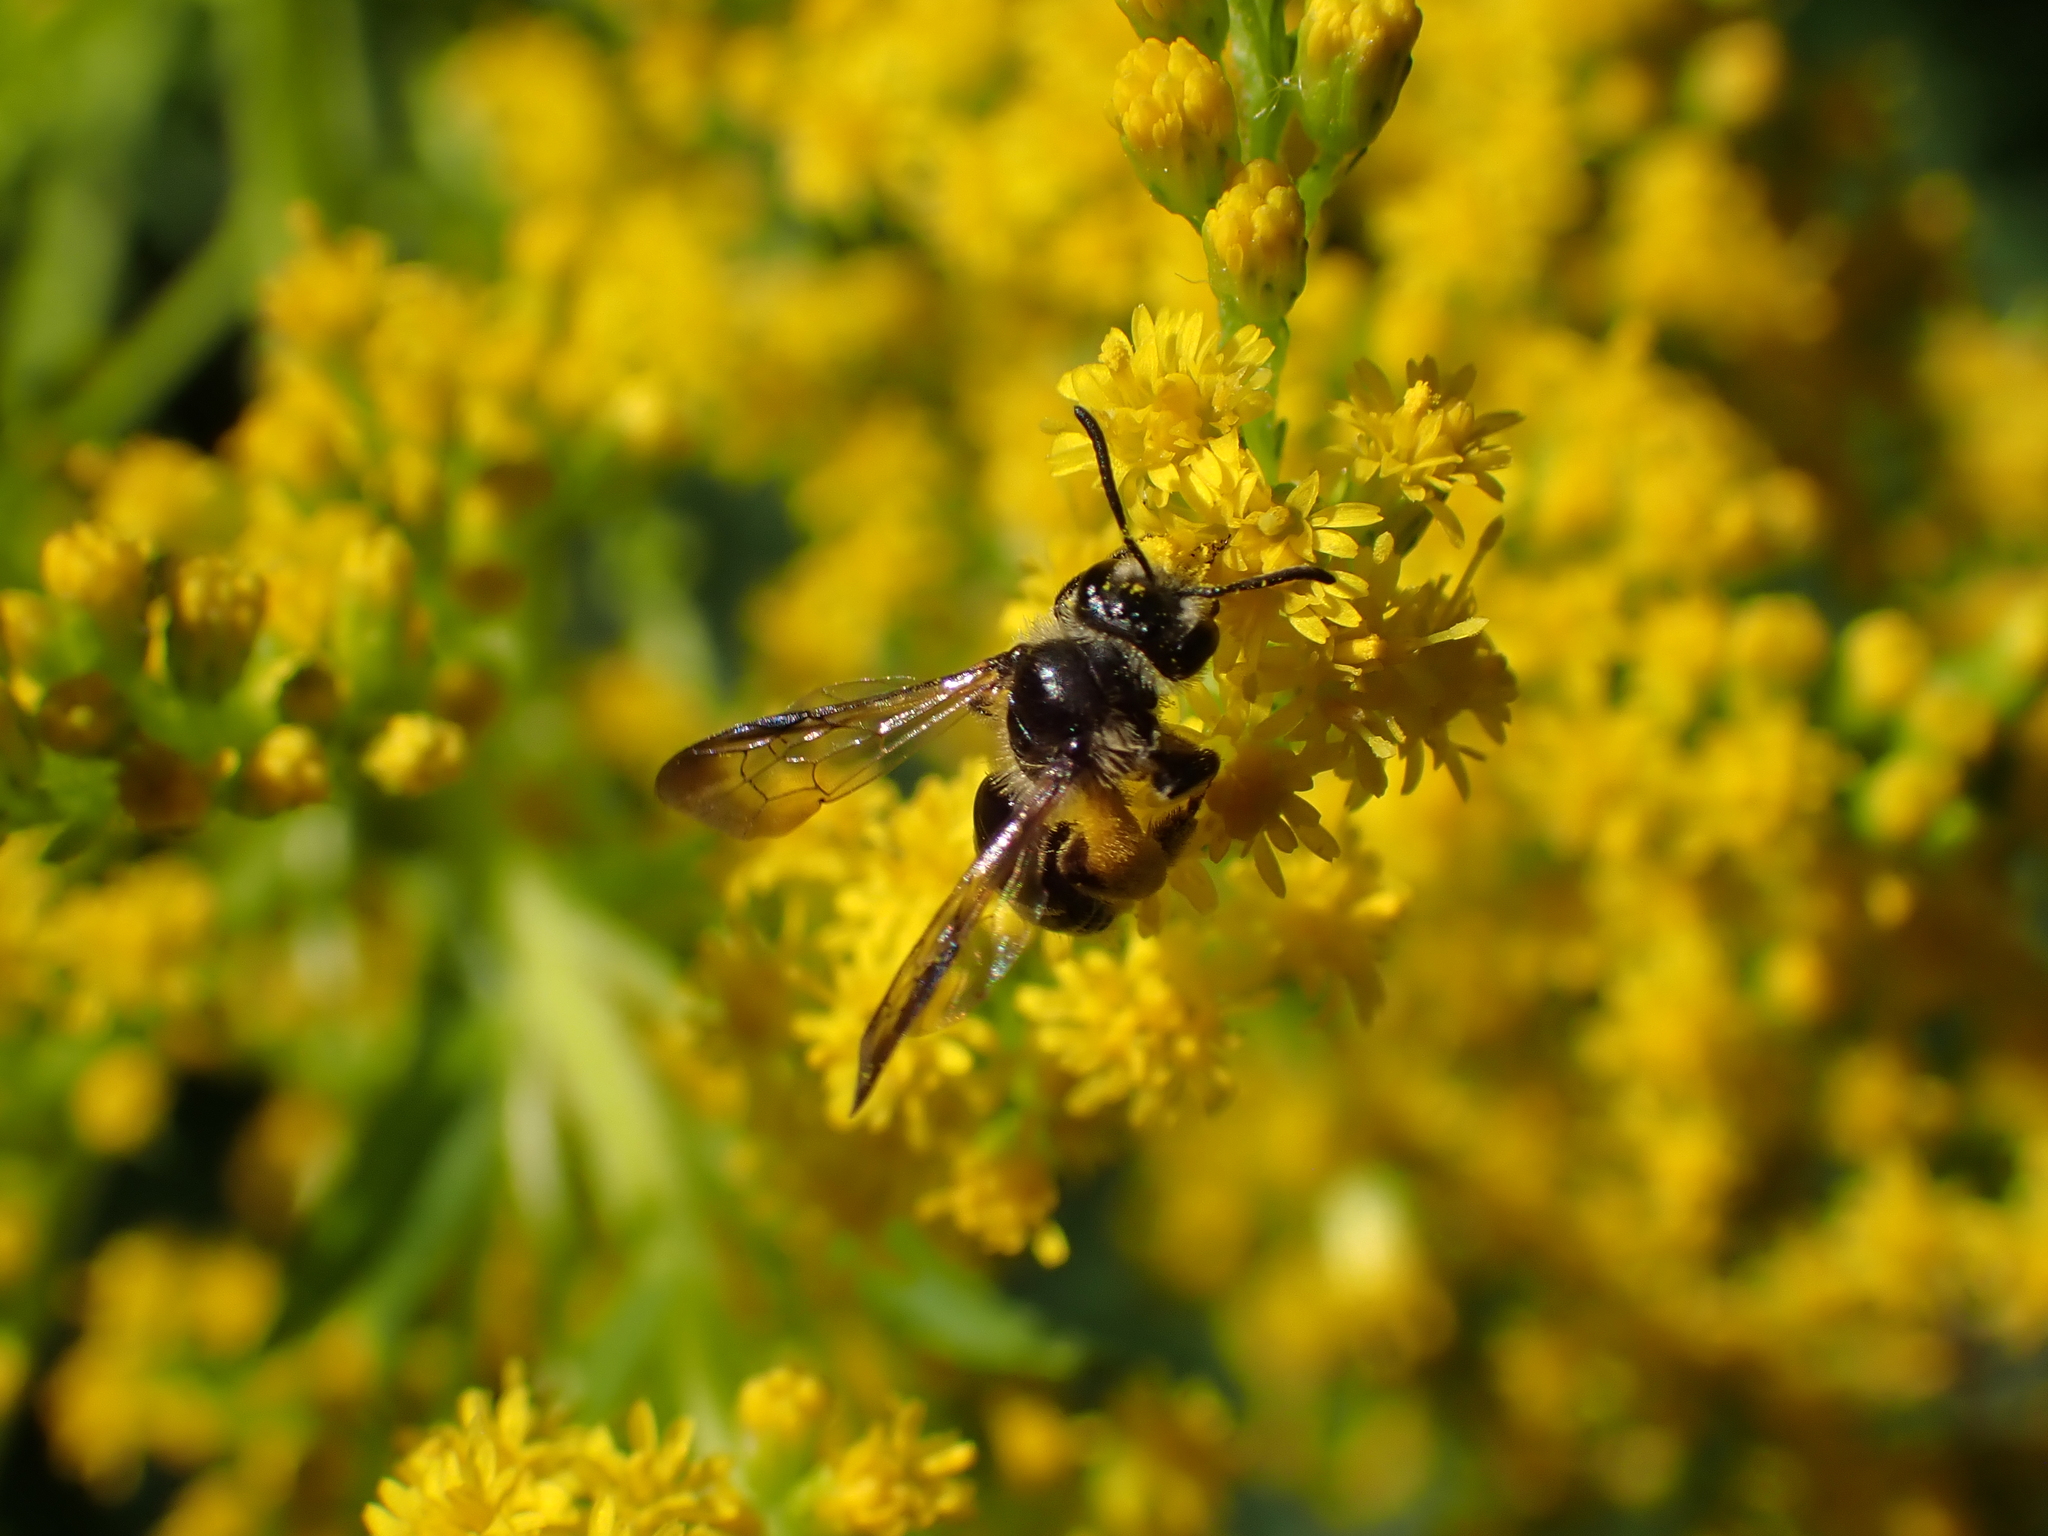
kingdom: Animalia
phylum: Arthropoda
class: Insecta
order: Hymenoptera
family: Andrenidae
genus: Andrena
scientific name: Andrena nubecula
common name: Cloudy-winged mining bee
